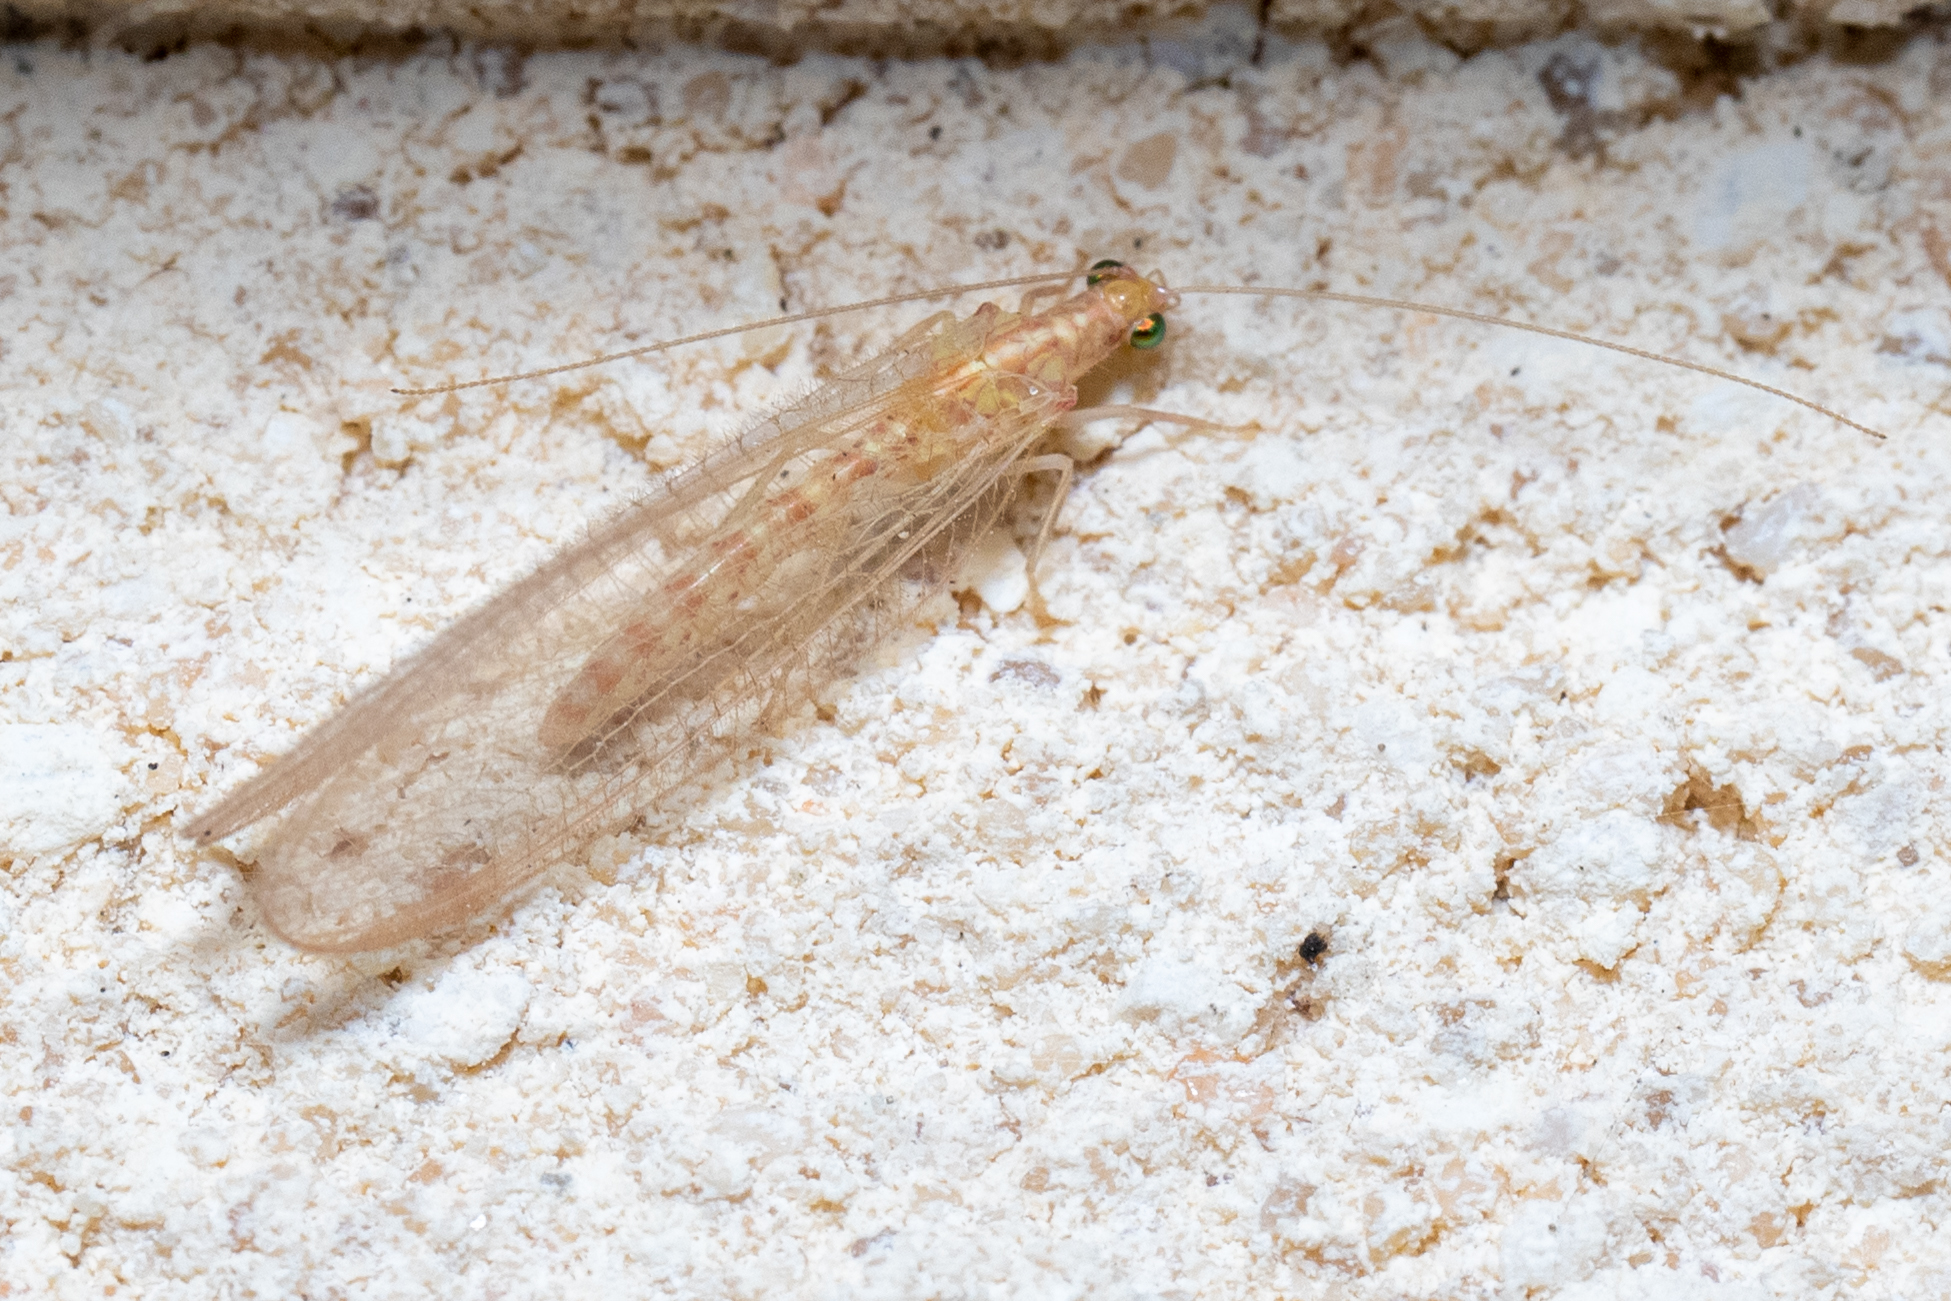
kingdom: Animalia
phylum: Arthropoda
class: Insecta
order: Neuroptera
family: Chrysopidae
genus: Chrysoperla
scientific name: Chrysoperla
